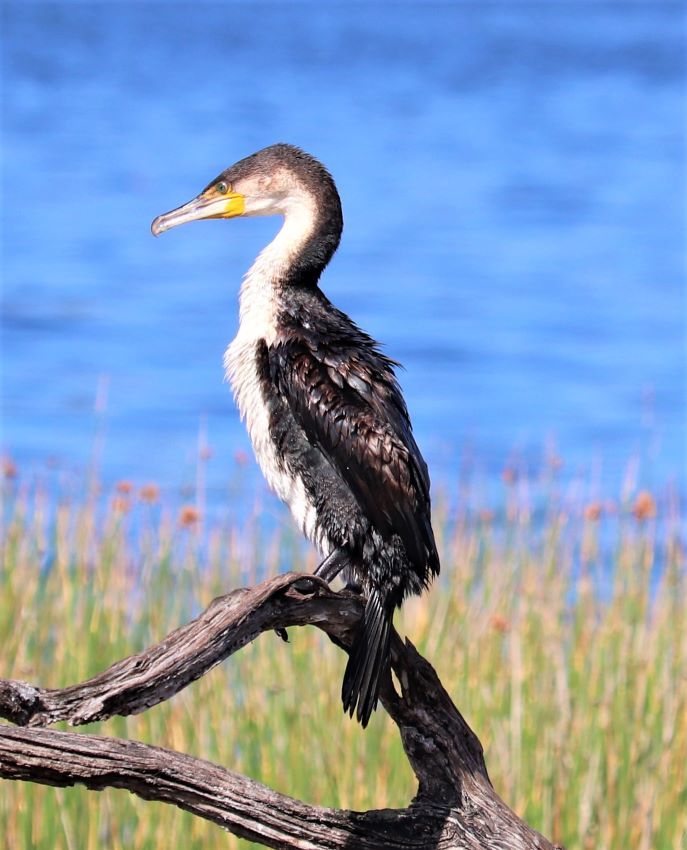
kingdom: Animalia
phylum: Chordata
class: Aves
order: Suliformes
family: Phalacrocoracidae
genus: Phalacrocorax
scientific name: Phalacrocorax carbo
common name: Great cormorant
